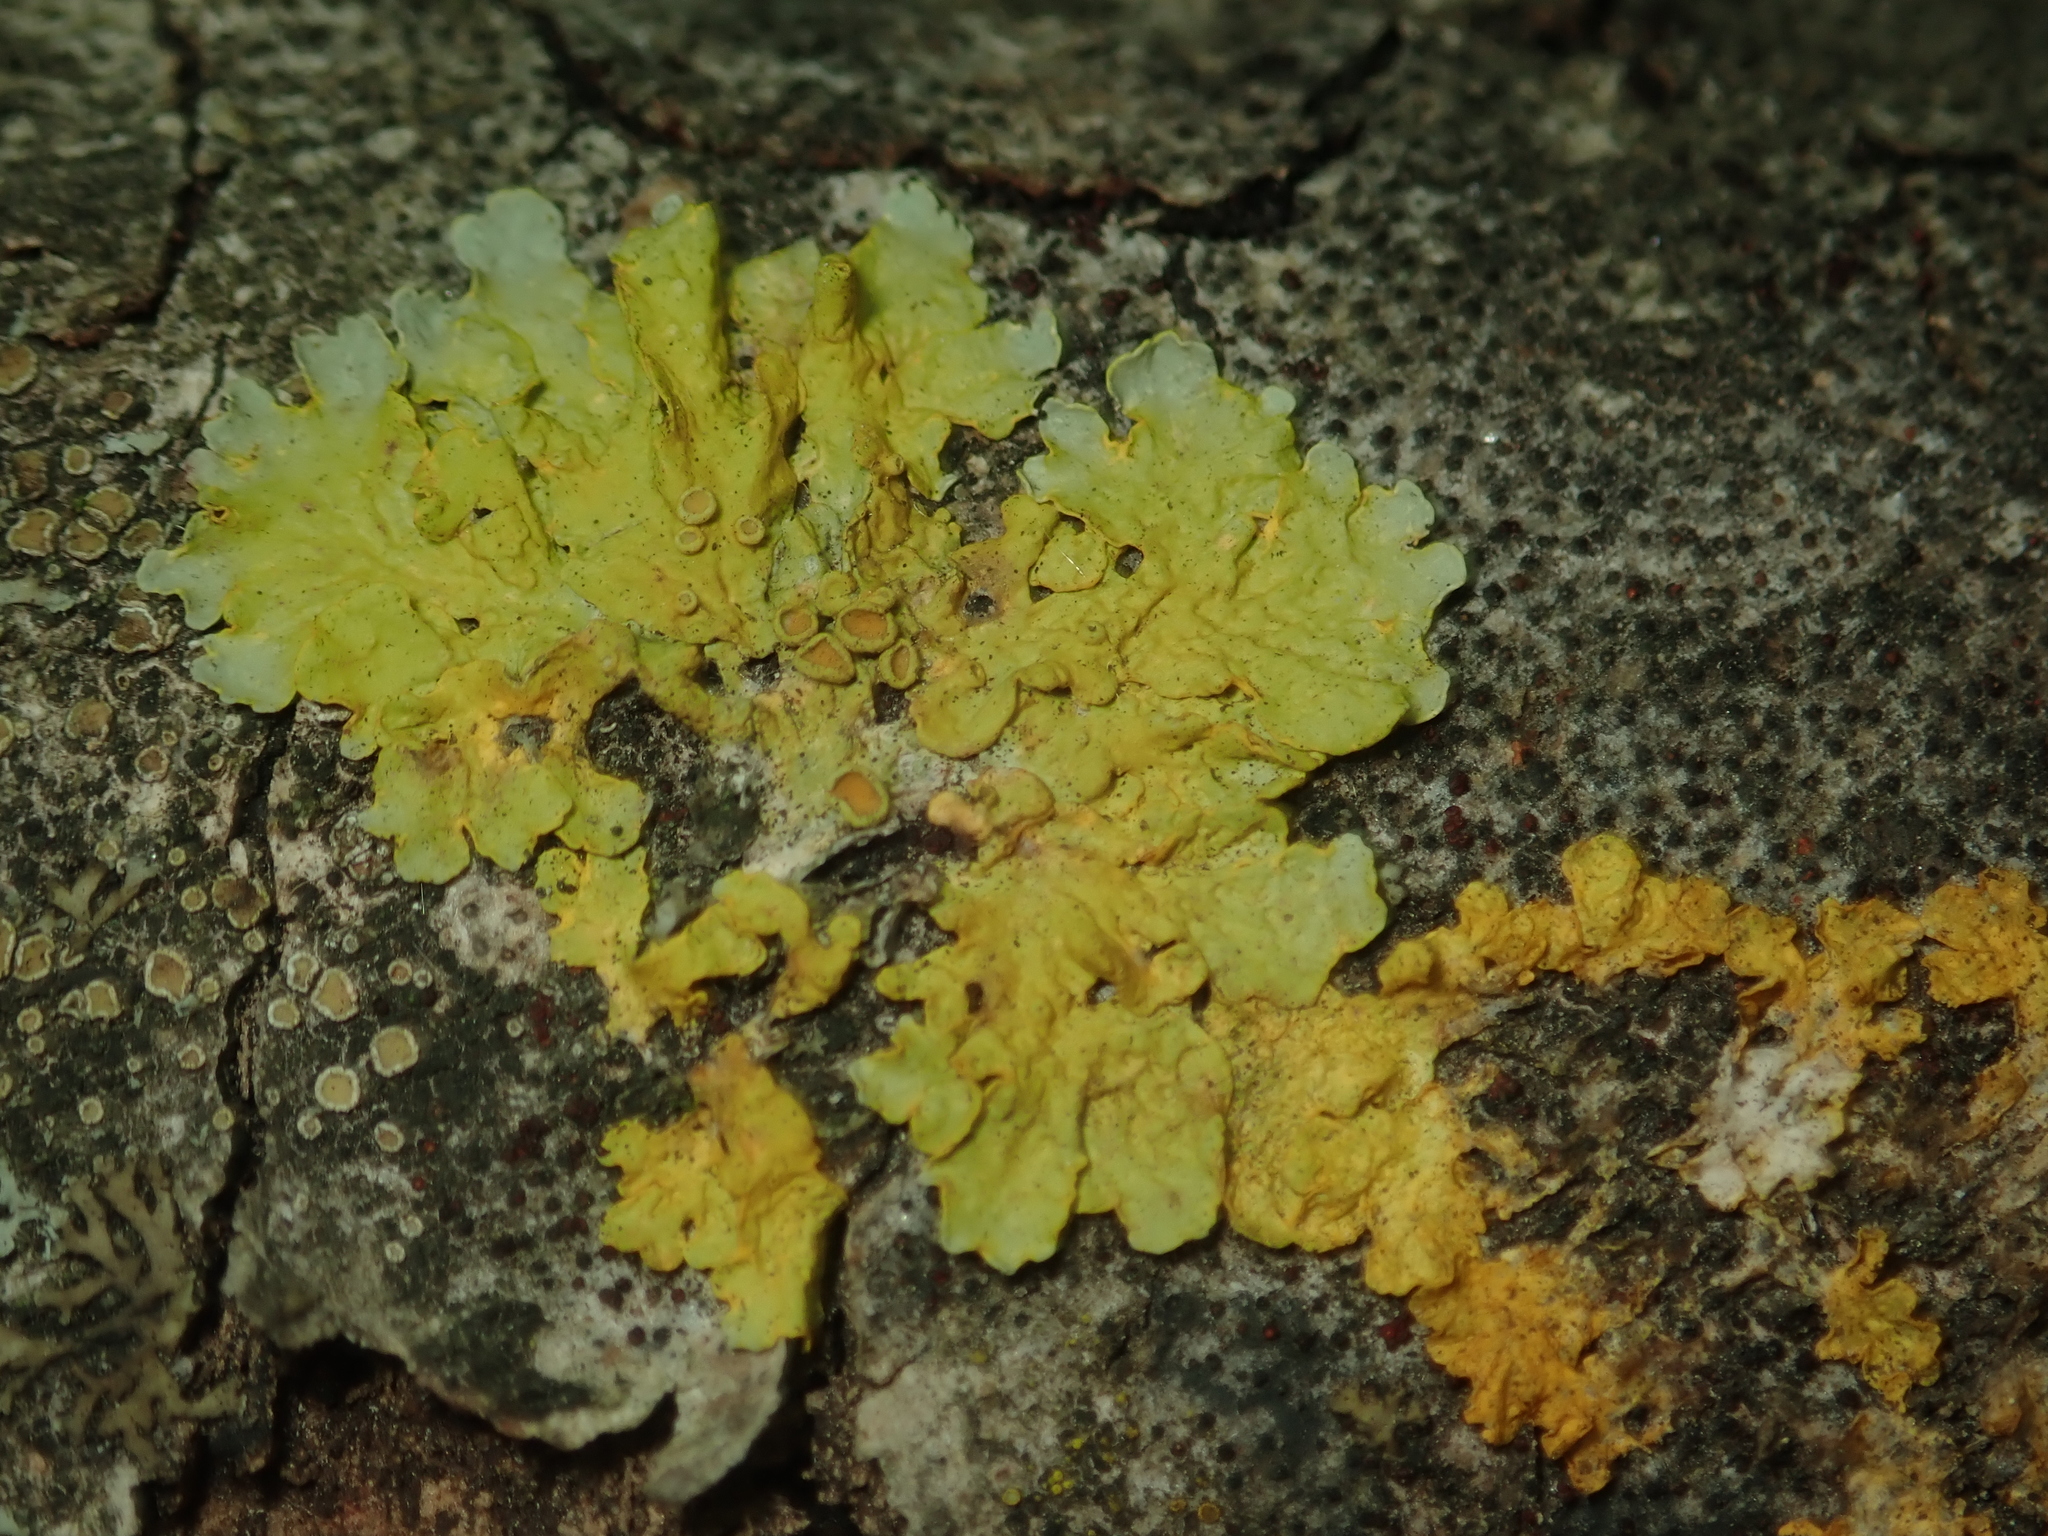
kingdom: Fungi
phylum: Ascomycota
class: Lecanoromycetes
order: Teloschistales
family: Teloschistaceae
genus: Xanthoria
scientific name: Xanthoria parietina
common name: Common orange lichen
